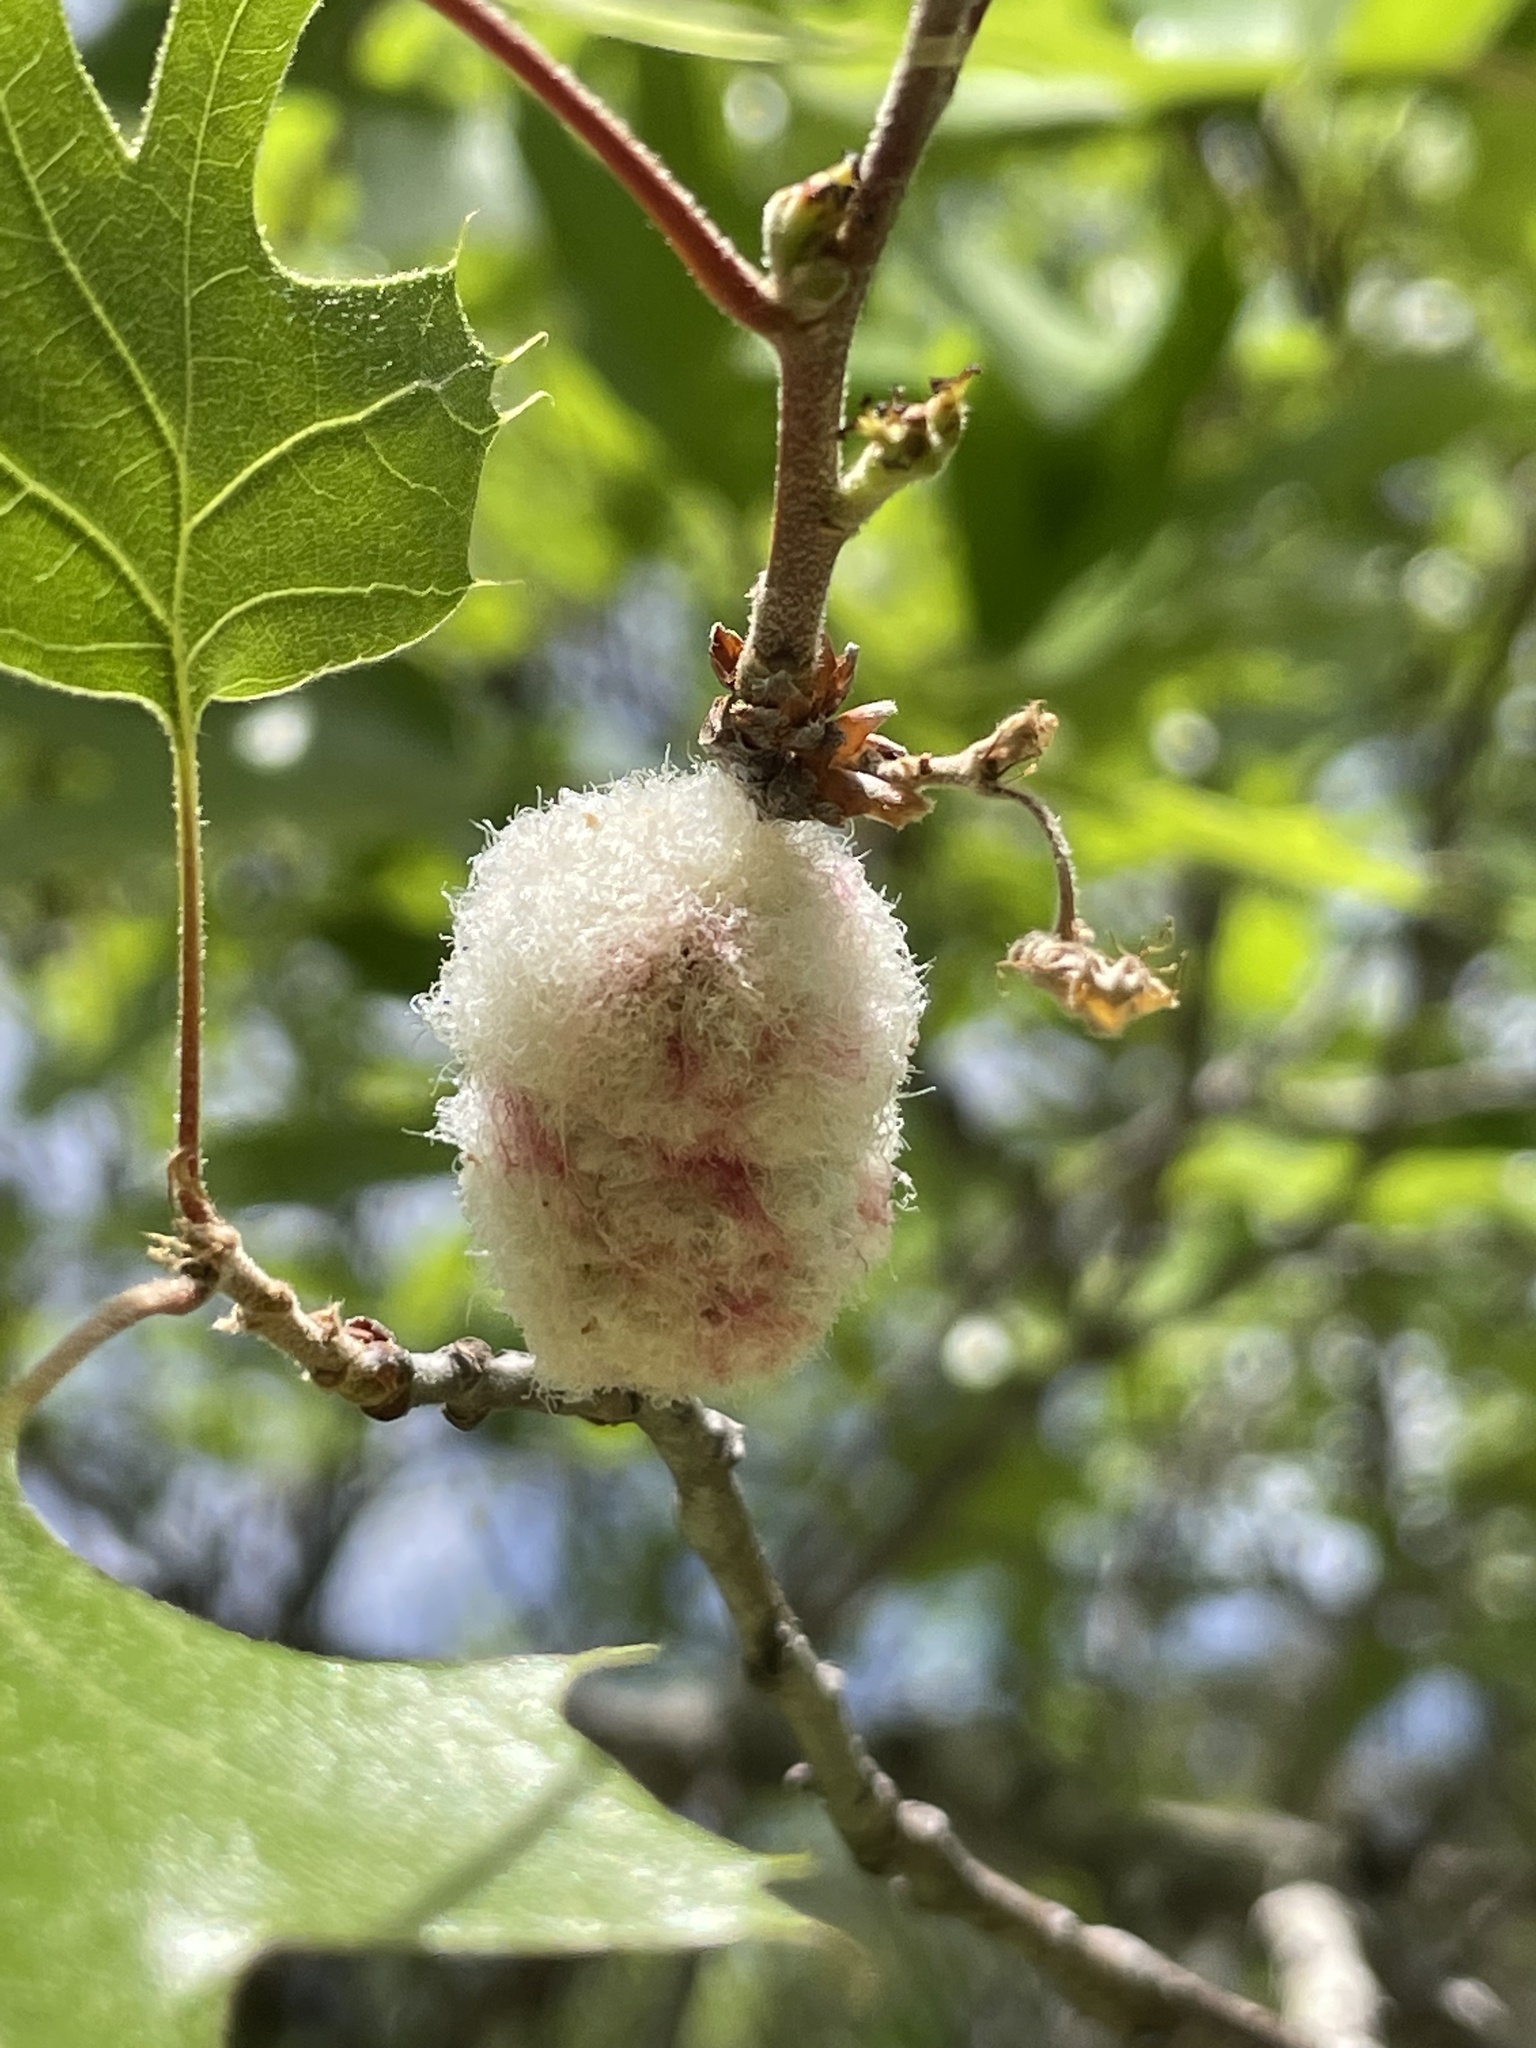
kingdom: Animalia
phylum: Arthropoda
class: Insecta
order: Hymenoptera
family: Cynipidae
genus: Callirhytis
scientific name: Callirhytis
